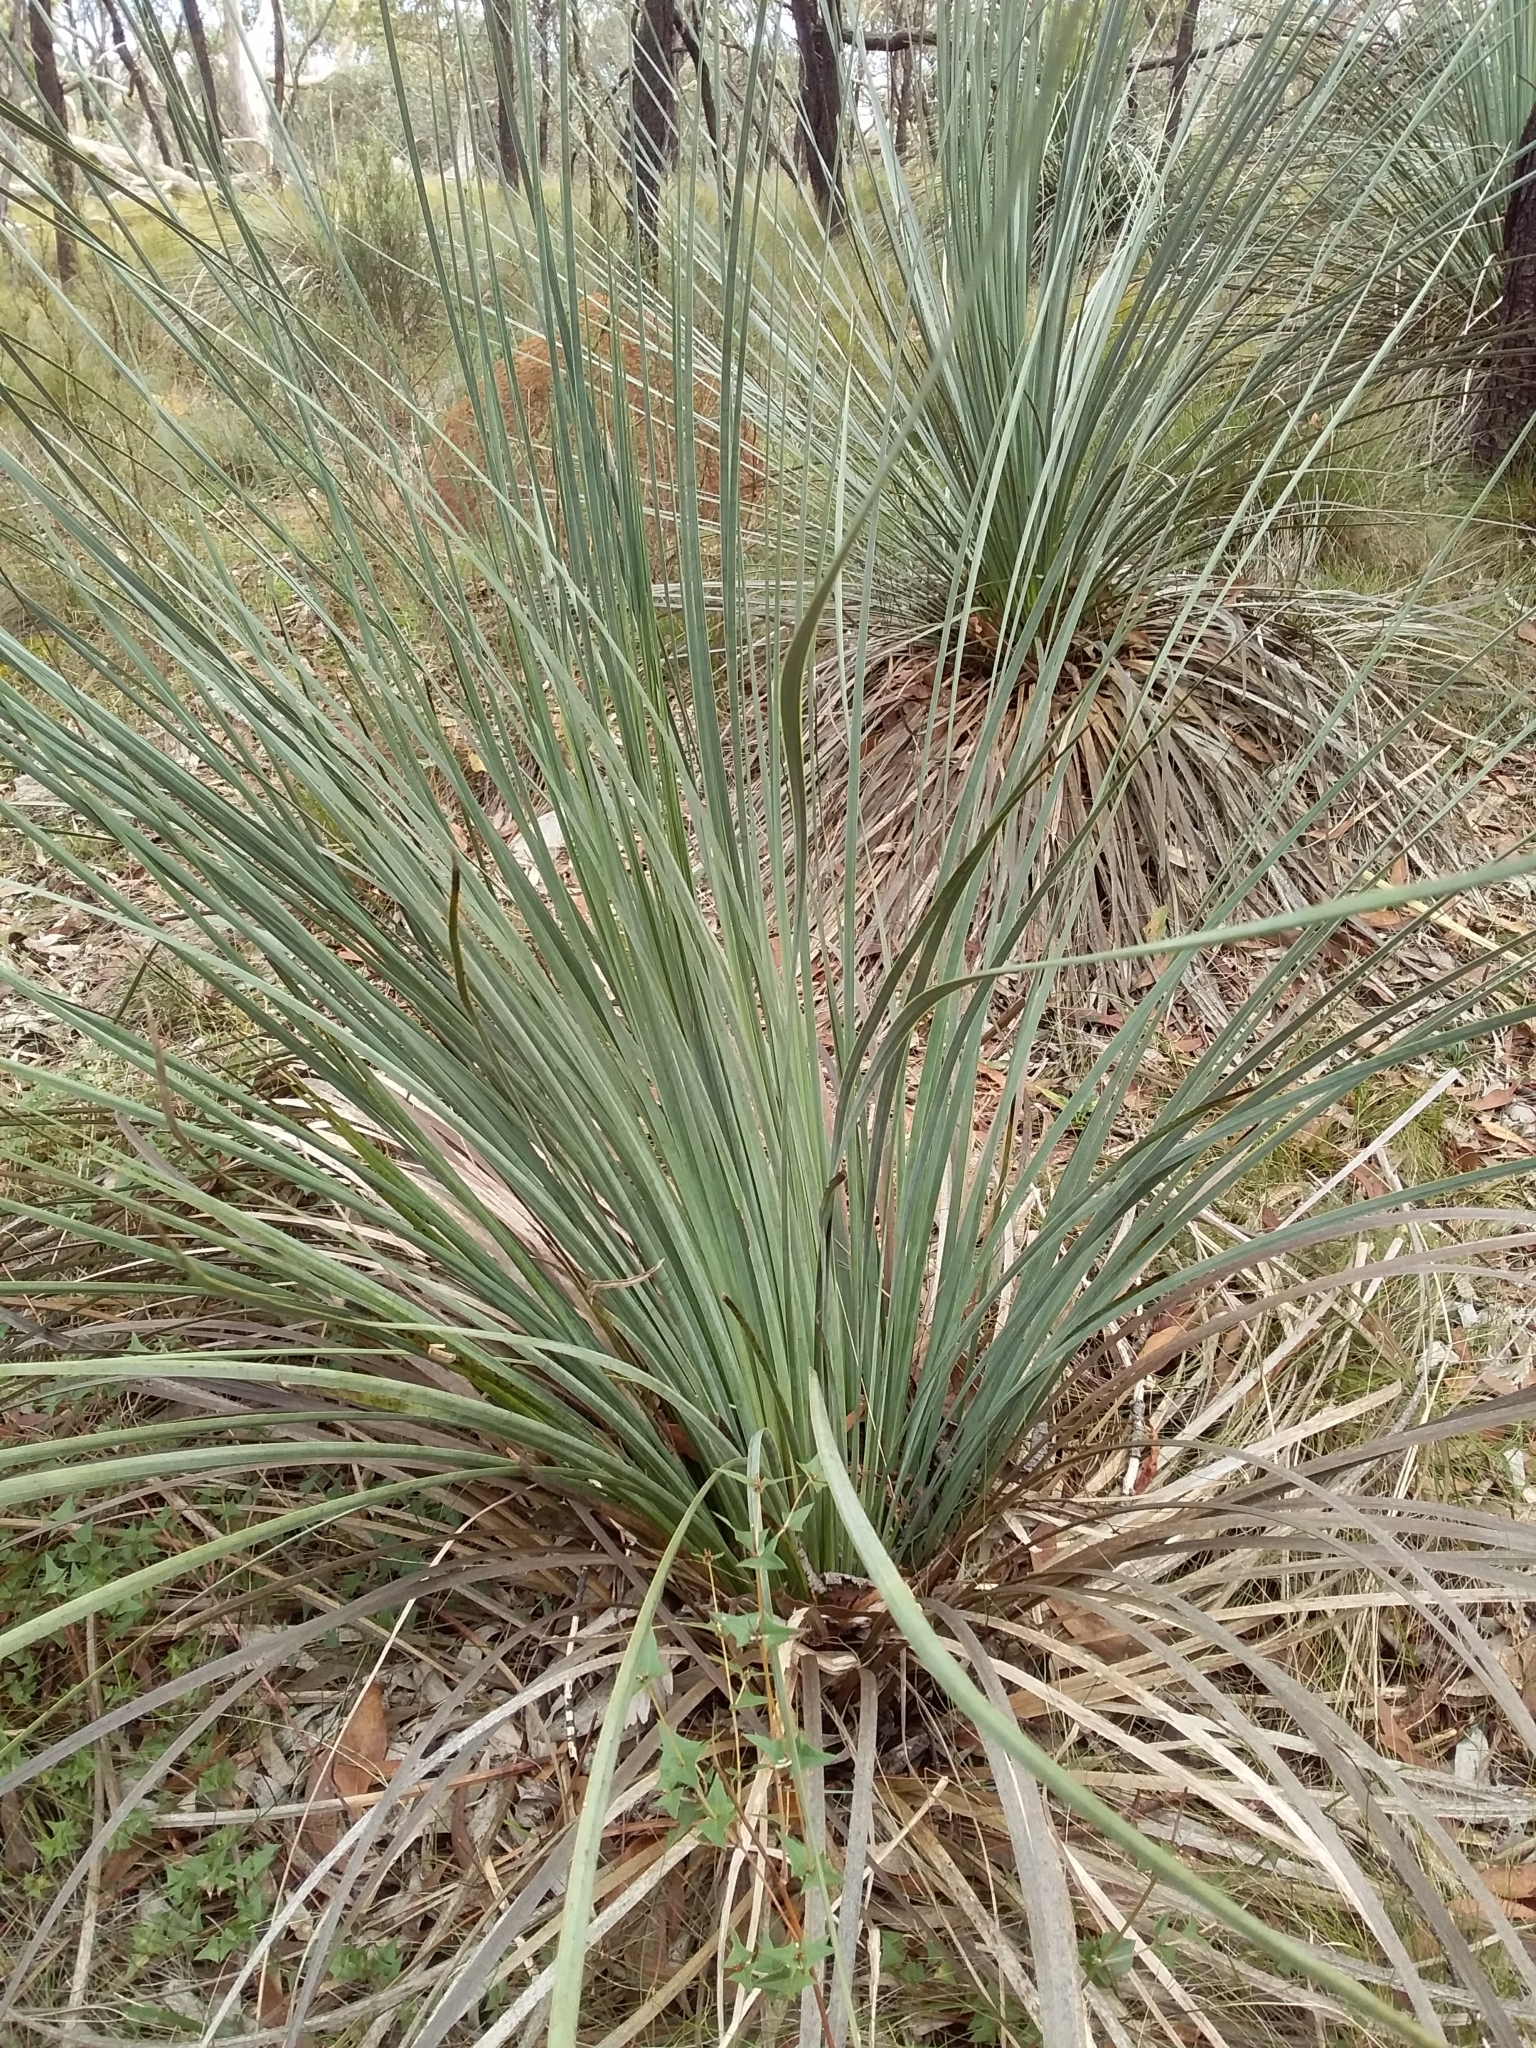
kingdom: Plantae
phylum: Tracheophyta
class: Liliopsida
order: Asparagales
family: Asphodelaceae
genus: Xanthorrhoea
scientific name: Xanthorrhoea semiplana
